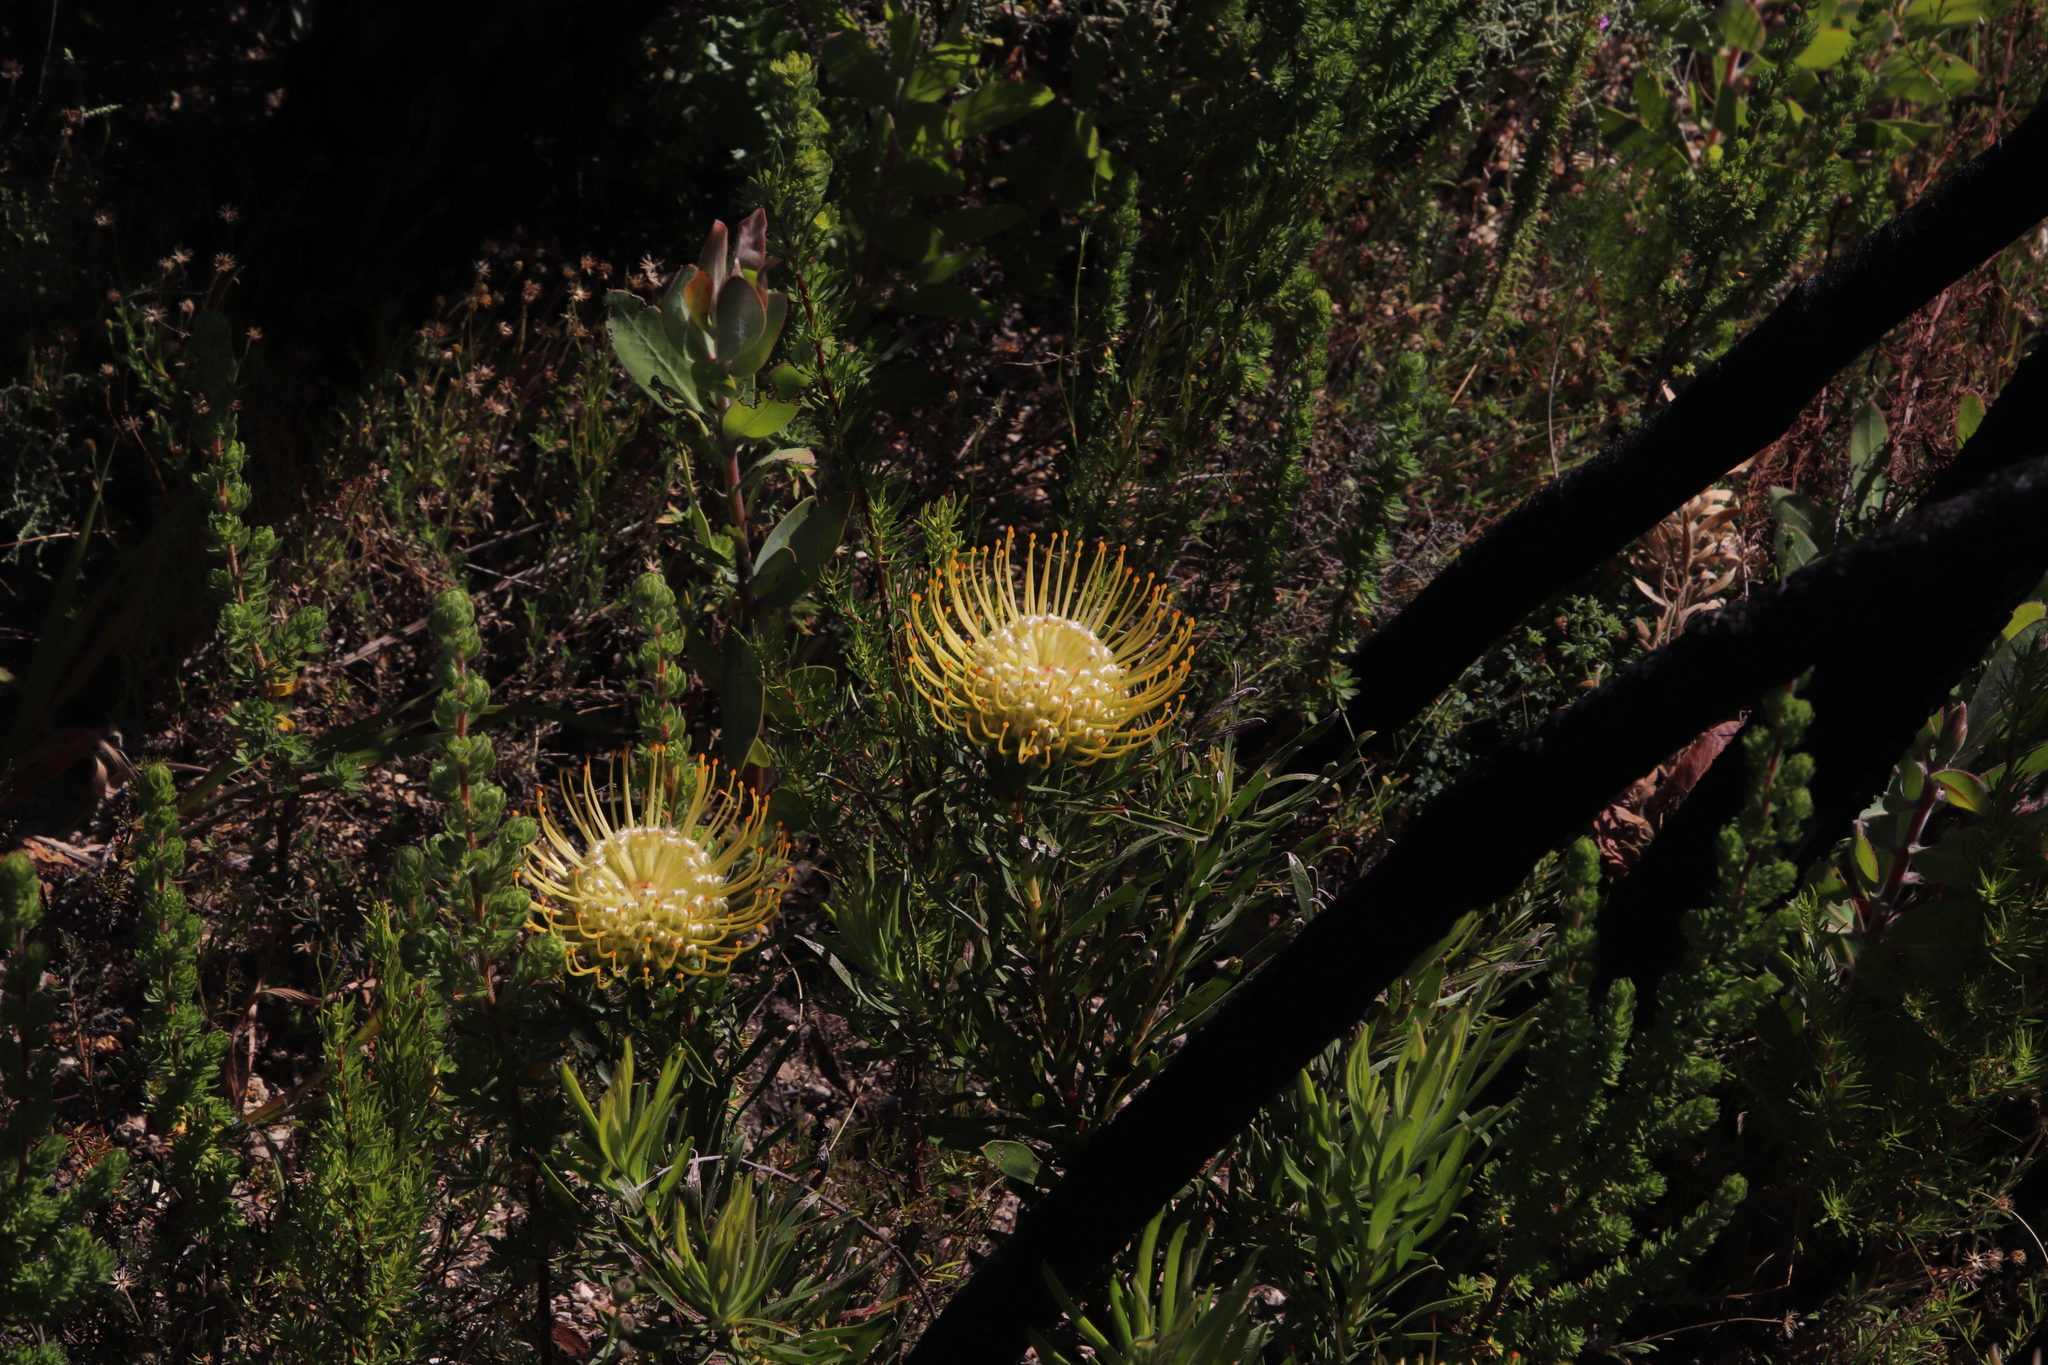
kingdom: Plantae
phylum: Tracheophyta
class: Magnoliopsida
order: Proteales
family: Proteaceae
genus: Leucospermum
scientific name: Leucospermum lineare
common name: Needle-leaf pincushion
